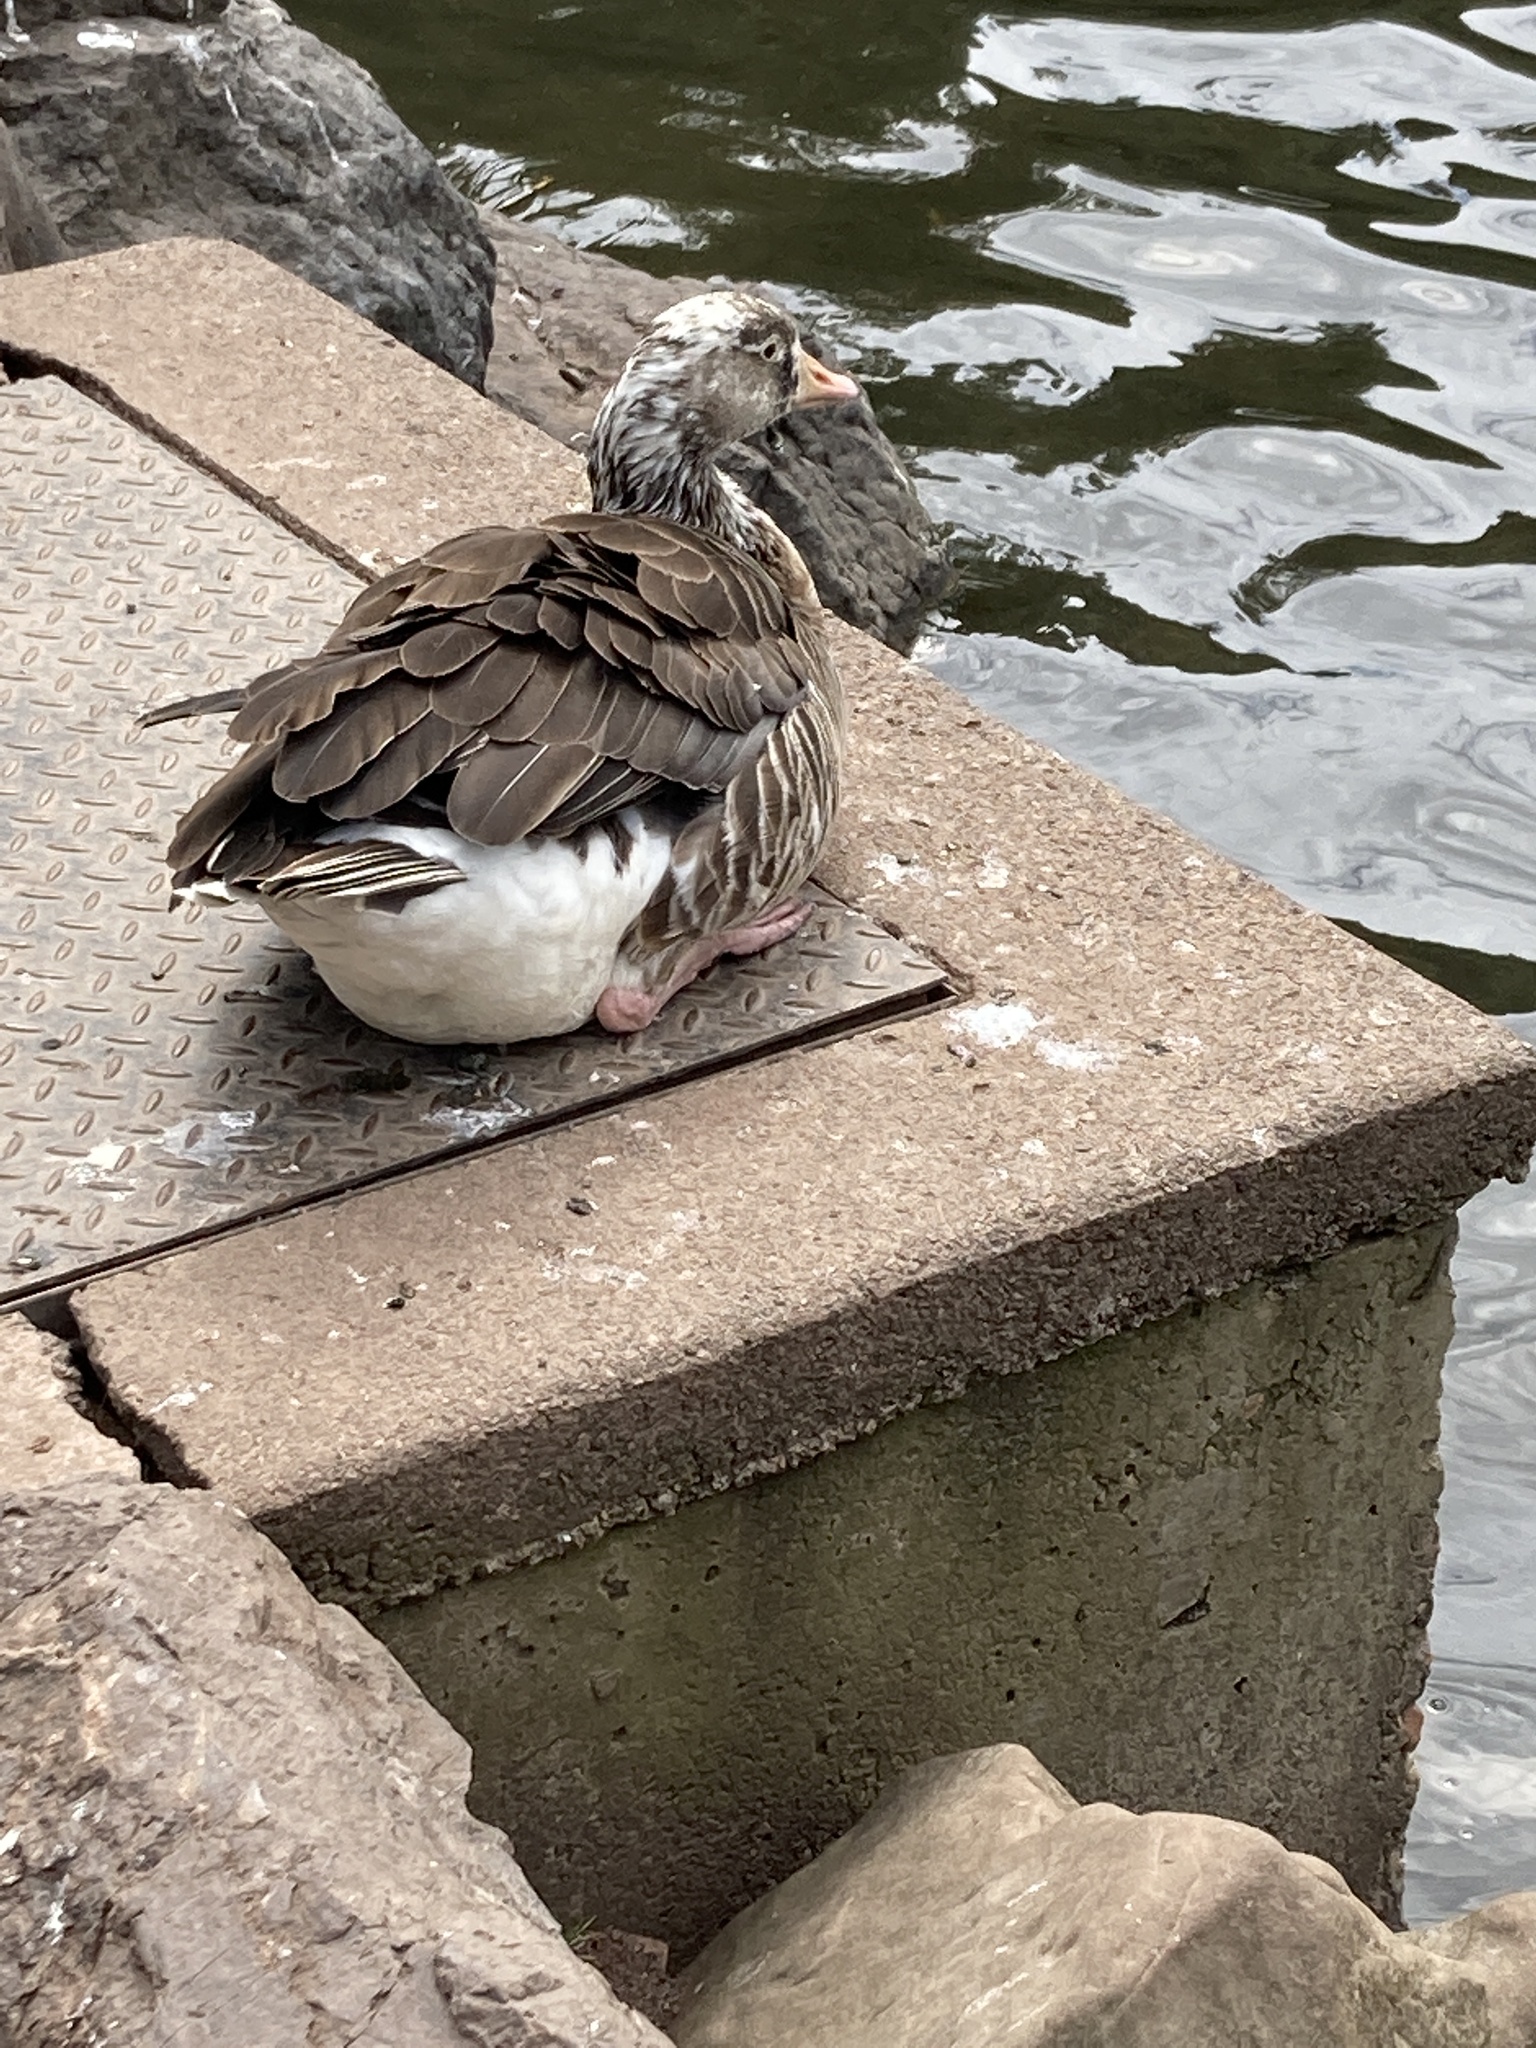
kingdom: Animalia
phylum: Chordata
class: Aves
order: Anseriformes
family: Anatidae
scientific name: Anatidae
